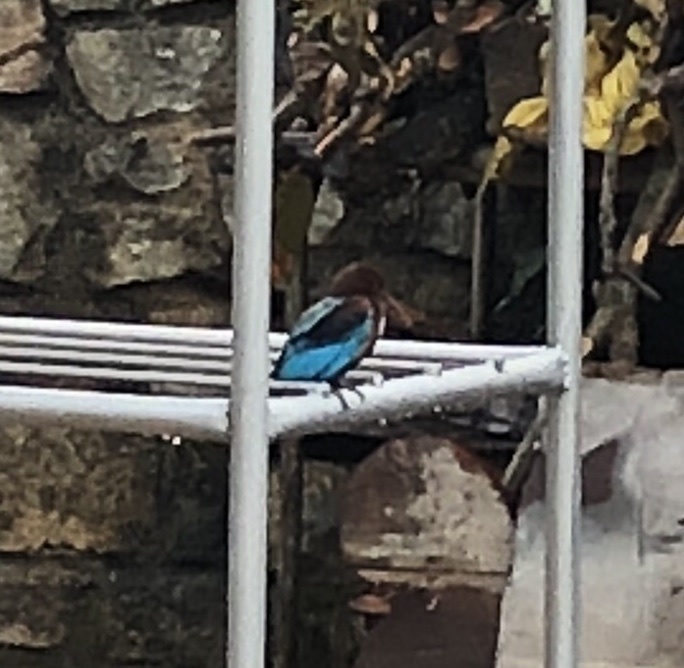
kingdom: Animalia
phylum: Chordata
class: Aves
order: Coraciiformes
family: Alcedinidae
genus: Halcyon
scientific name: Halcyon smyrnensis
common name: White-throated kingfisher
